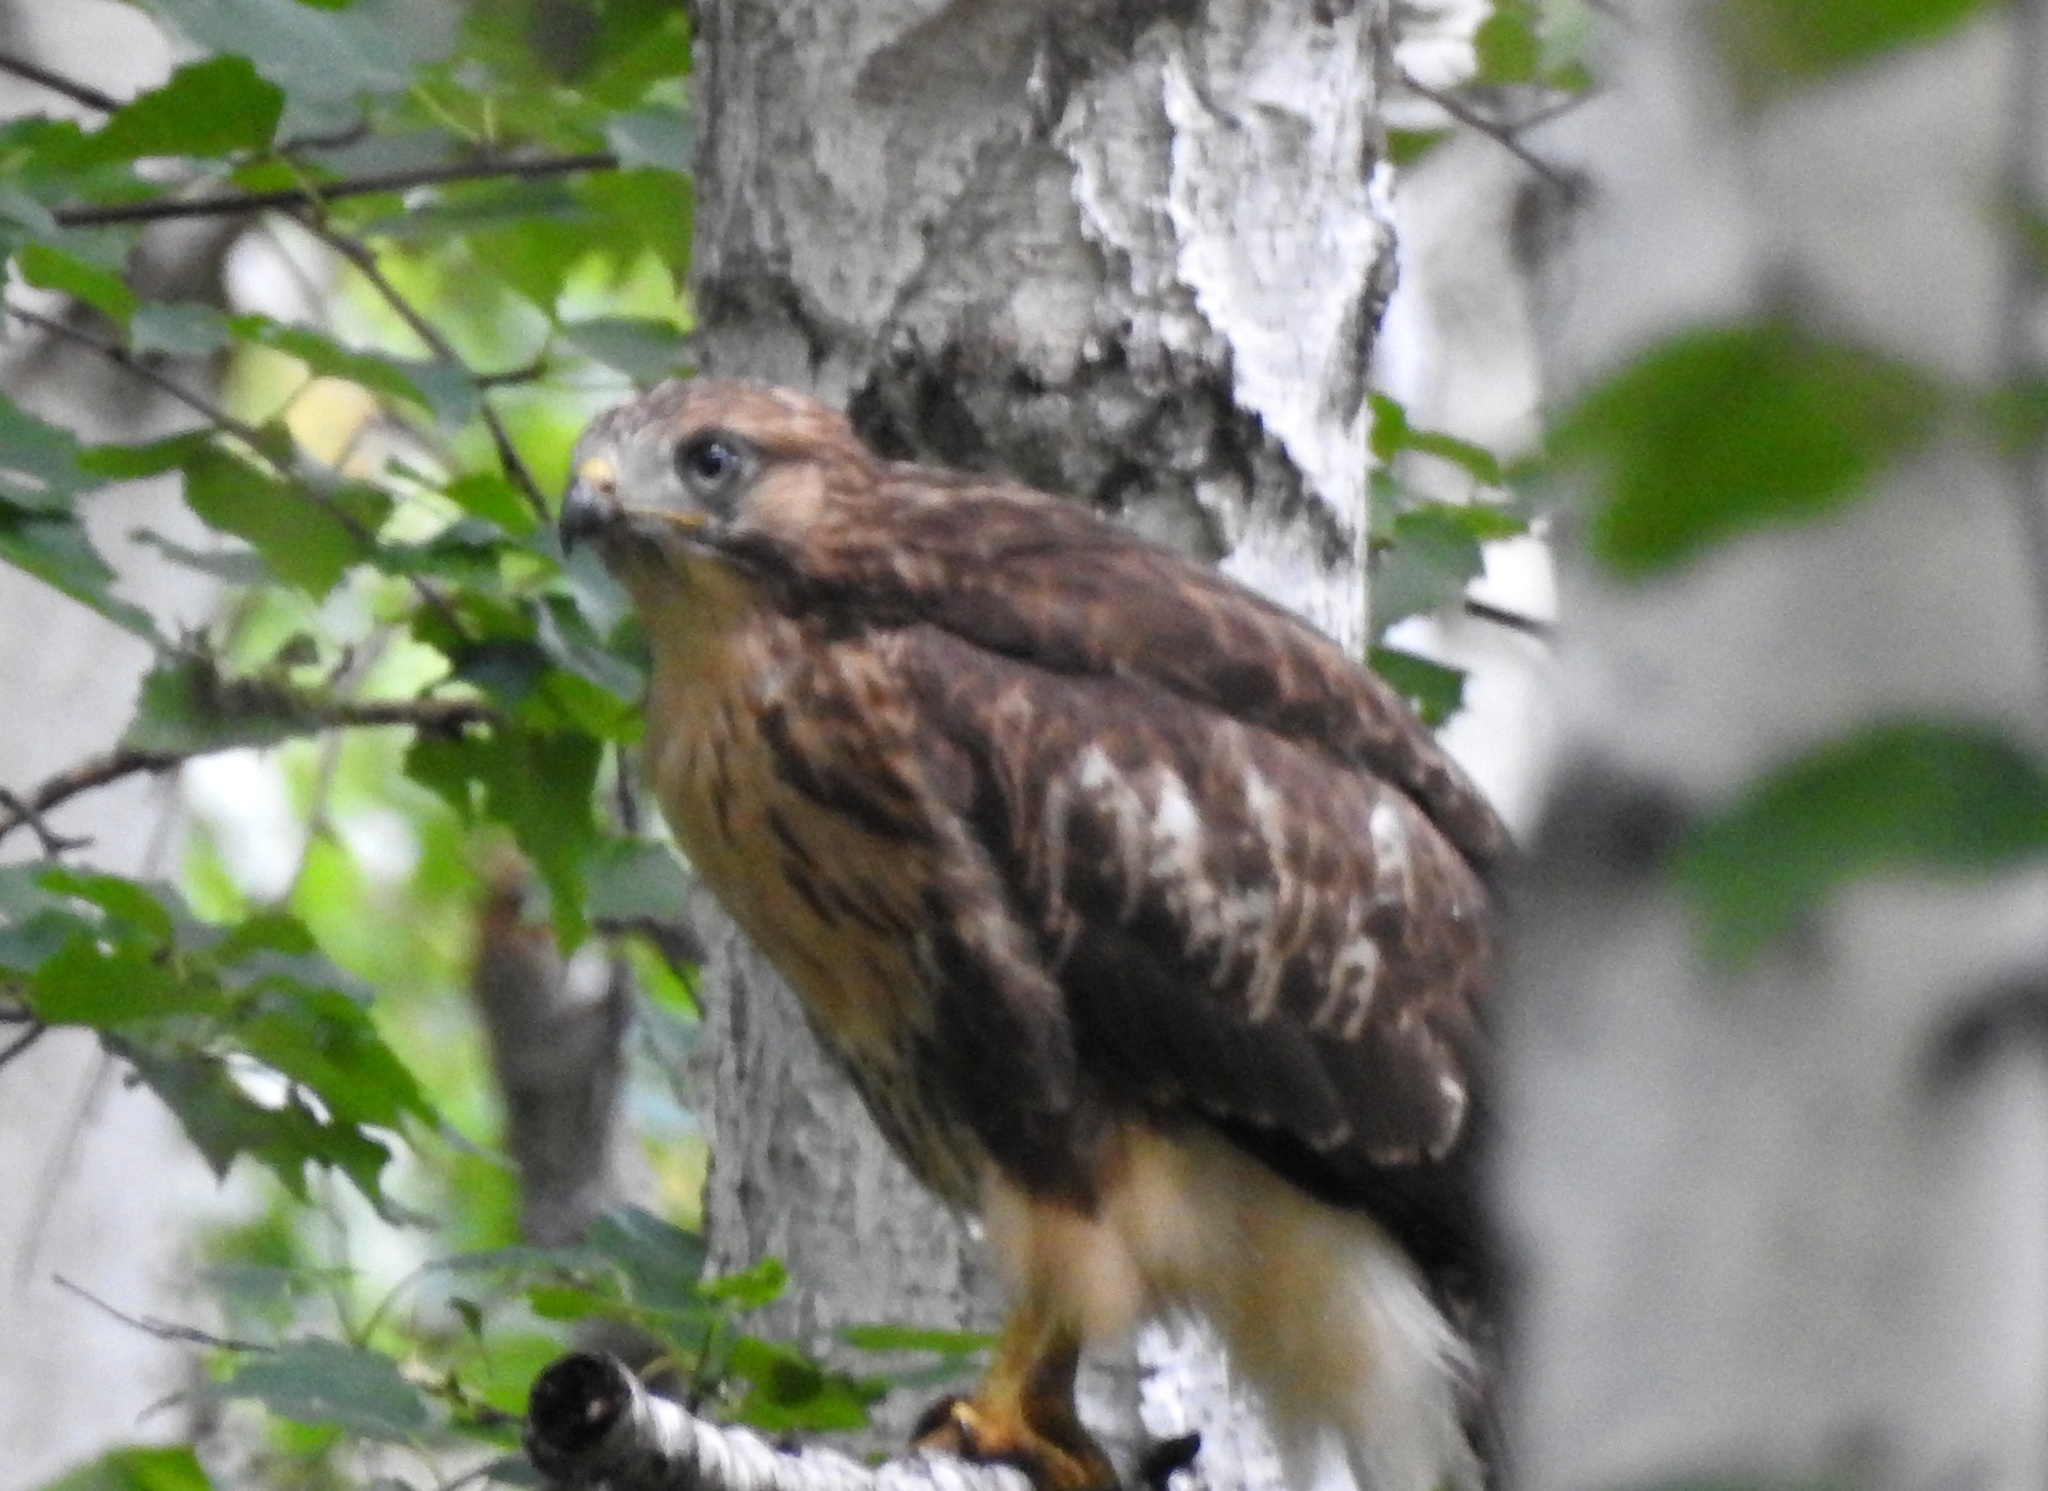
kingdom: Animalia
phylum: Chordata
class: Aves
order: Accipitriformes
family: Accipitridae
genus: Buteo
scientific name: Buteo japonicus
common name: Eastern buzzard
